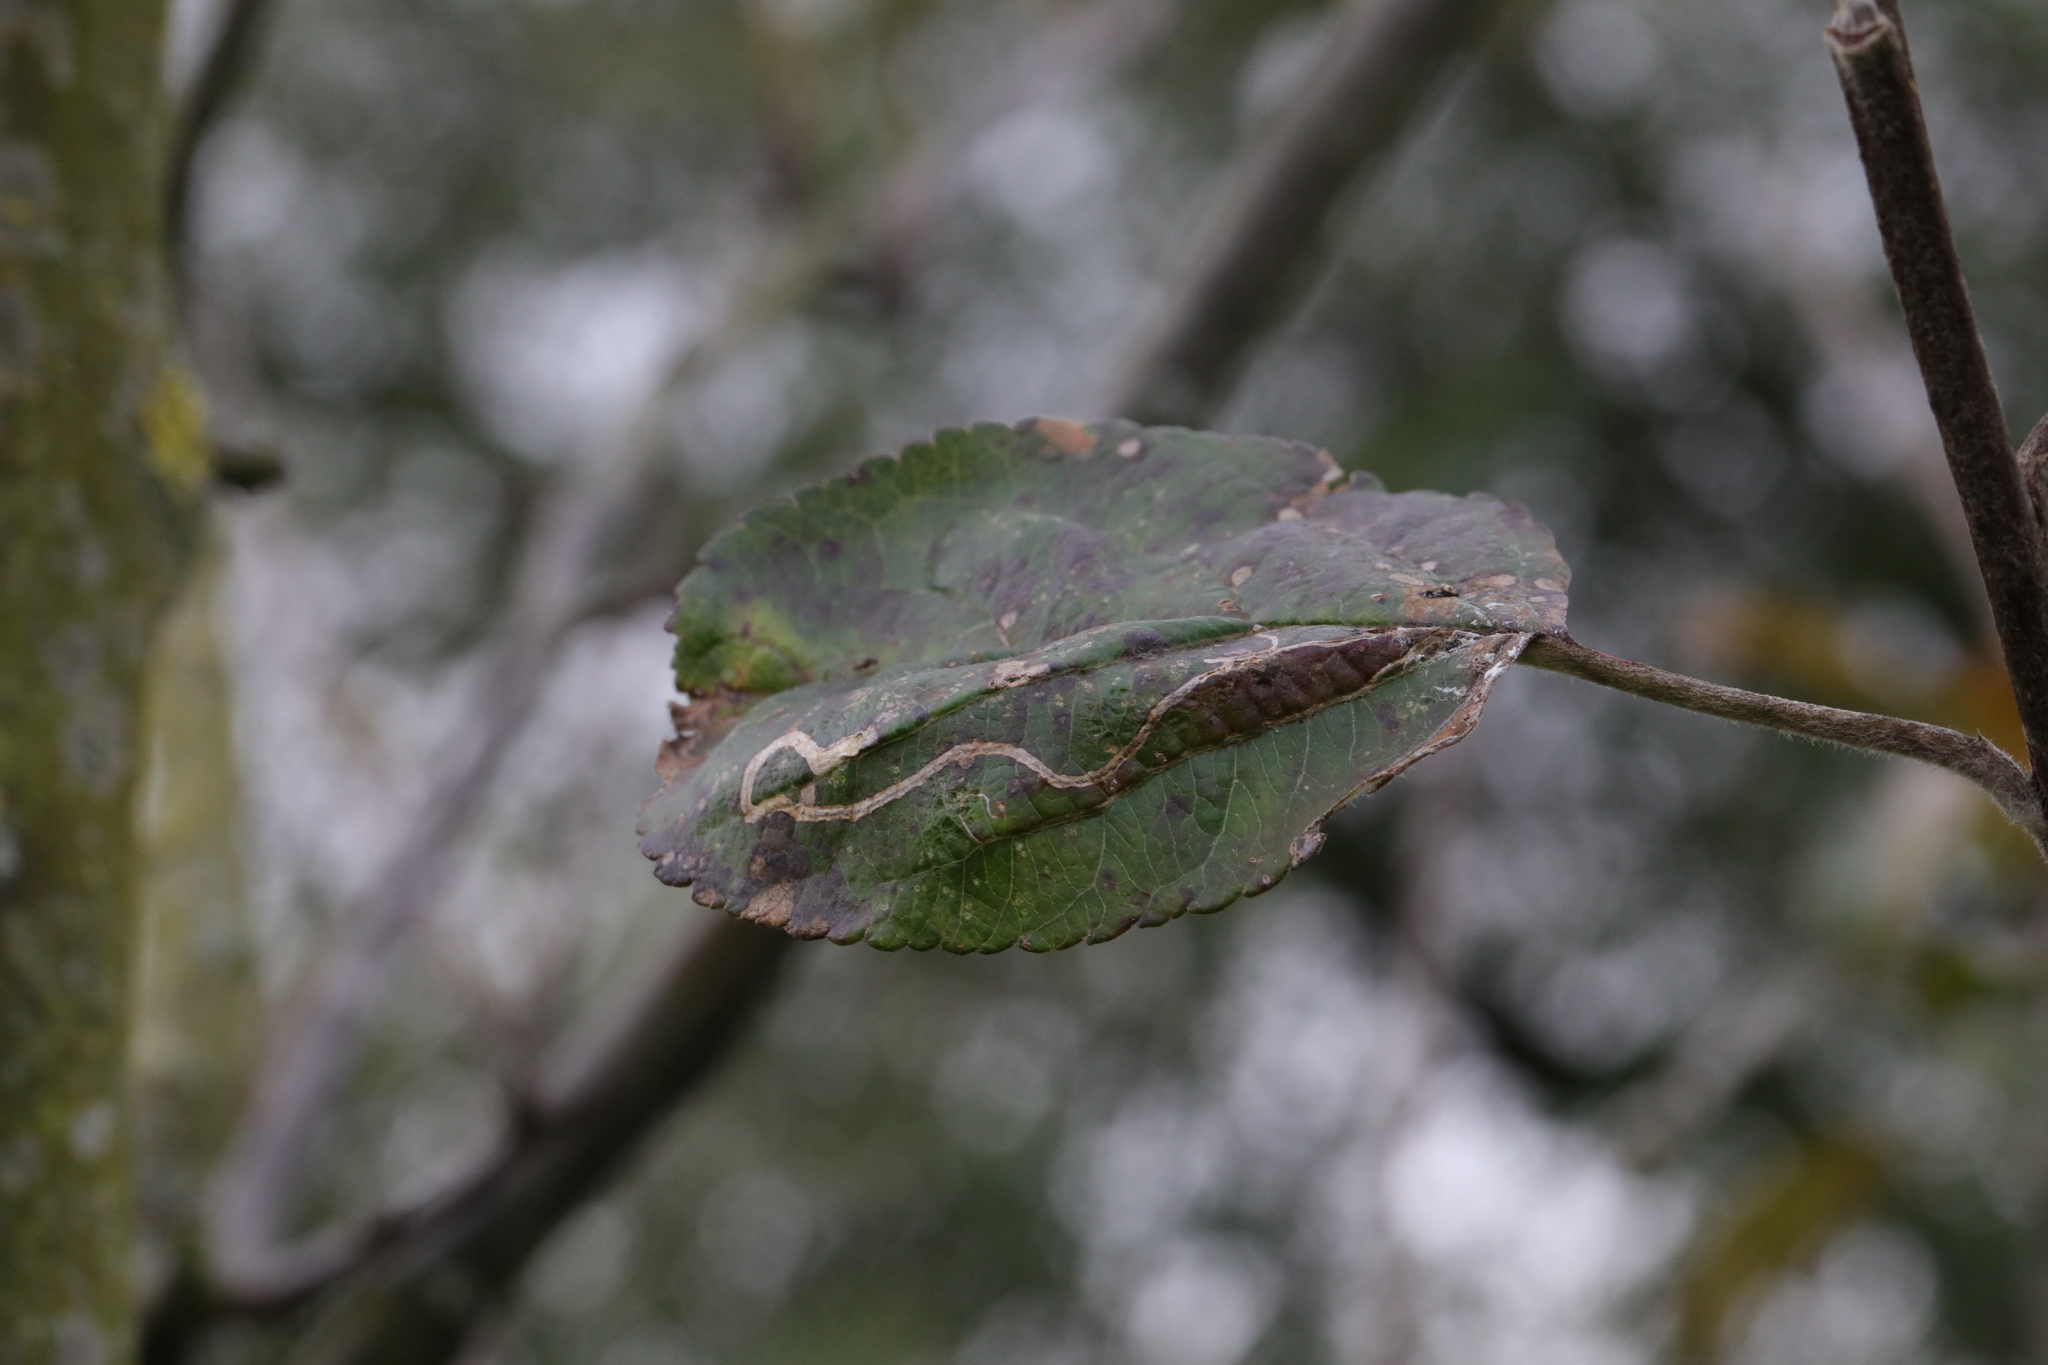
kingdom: Animalia
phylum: Arthropoda
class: Insecta
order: Lepidoptera
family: Nepticulidae
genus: Stigmella
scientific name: Stigmella malella
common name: Apple pigmy
